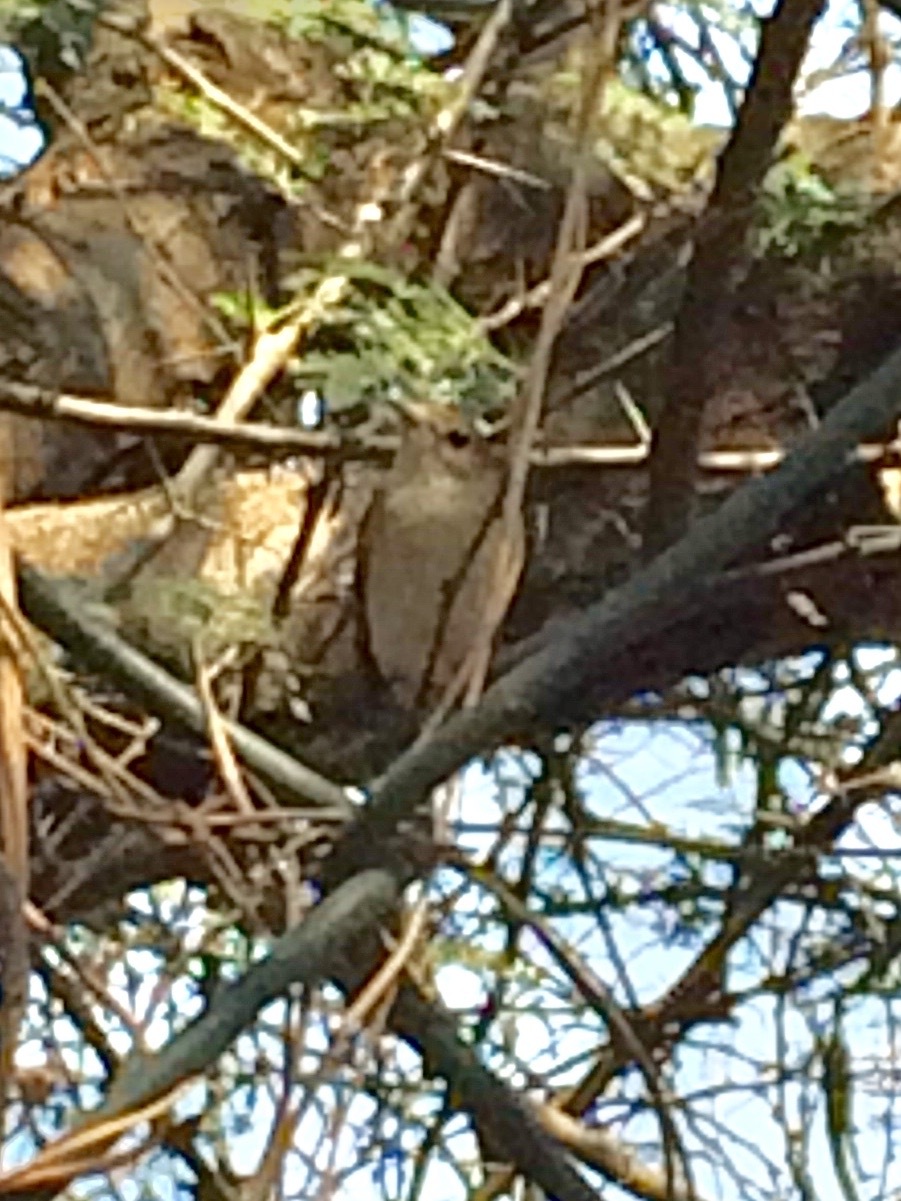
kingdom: Animalia
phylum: Chordata
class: Aves
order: Passeriformes
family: Muscicapidae
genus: Muscicapa
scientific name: Muscicapa latirostris
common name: Asian brown flycatcher
